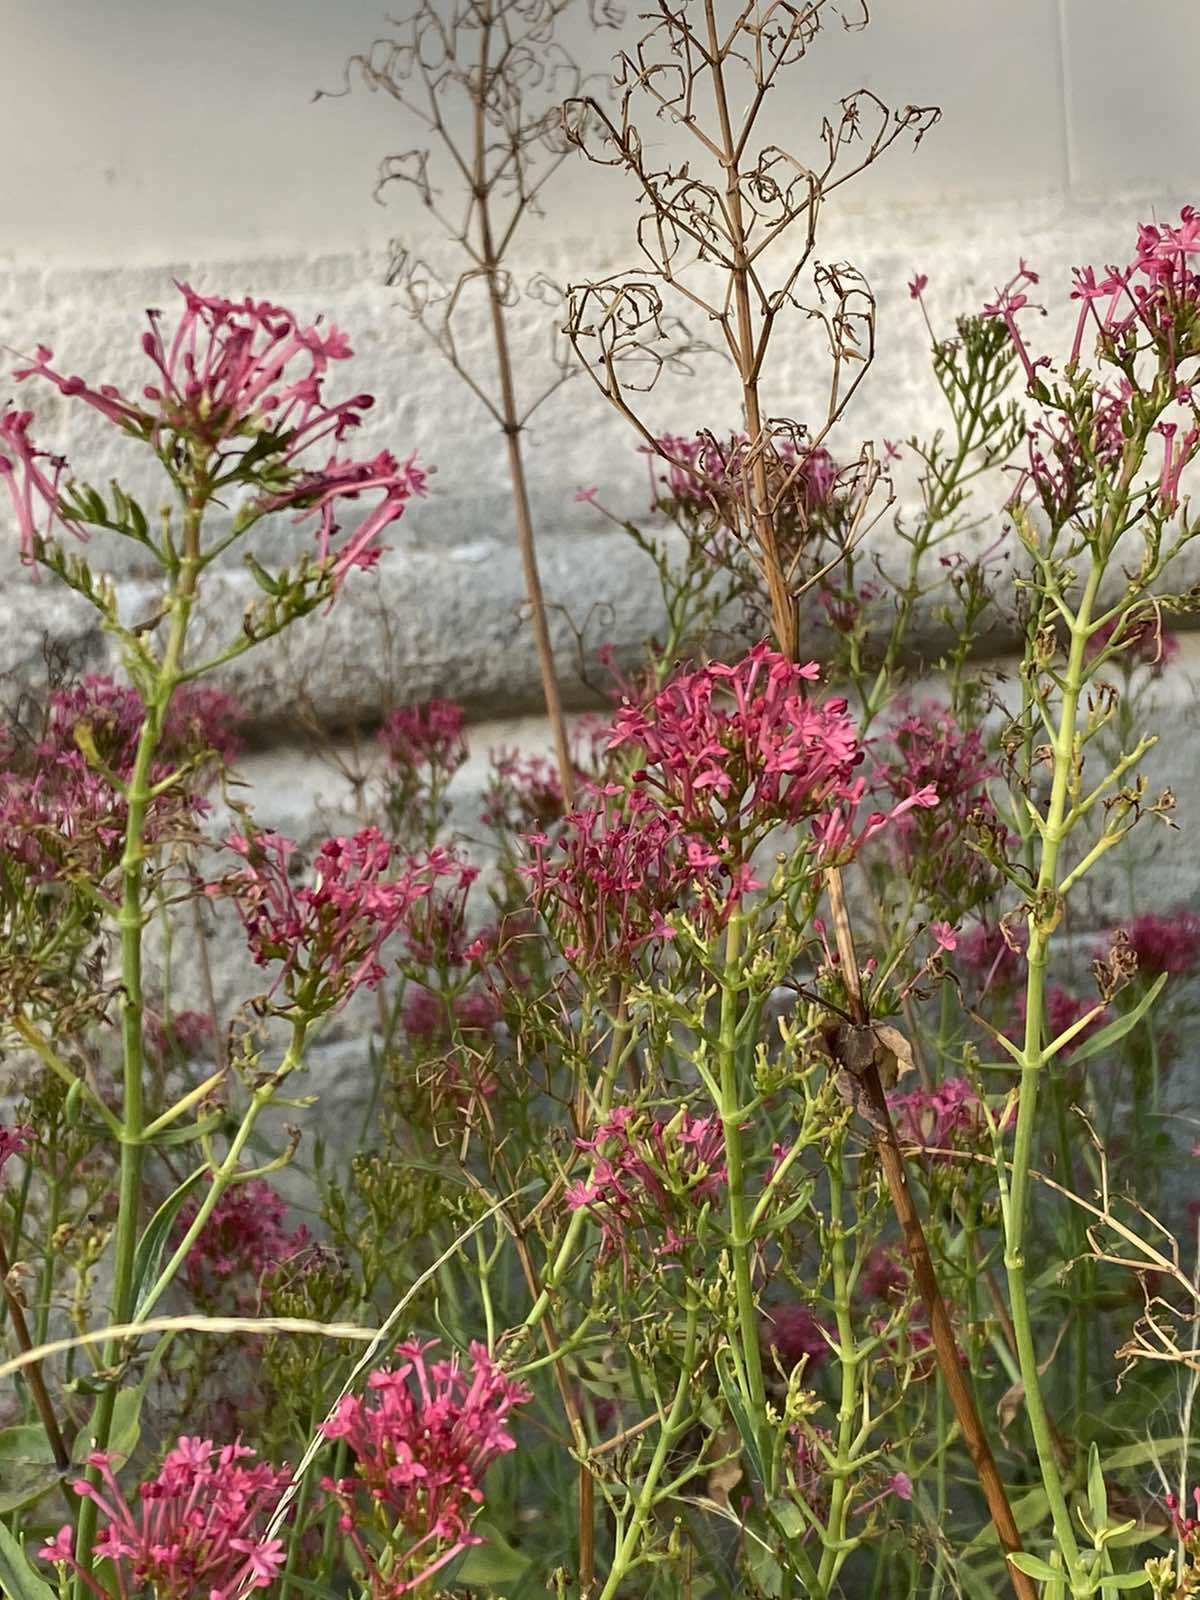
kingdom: Plantae
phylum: Tracheophyta
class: Magnoliopsida
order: Dipsacales
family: Caprifoliaceae
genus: Centranthus
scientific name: Centranthus ruber
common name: Red valerian
